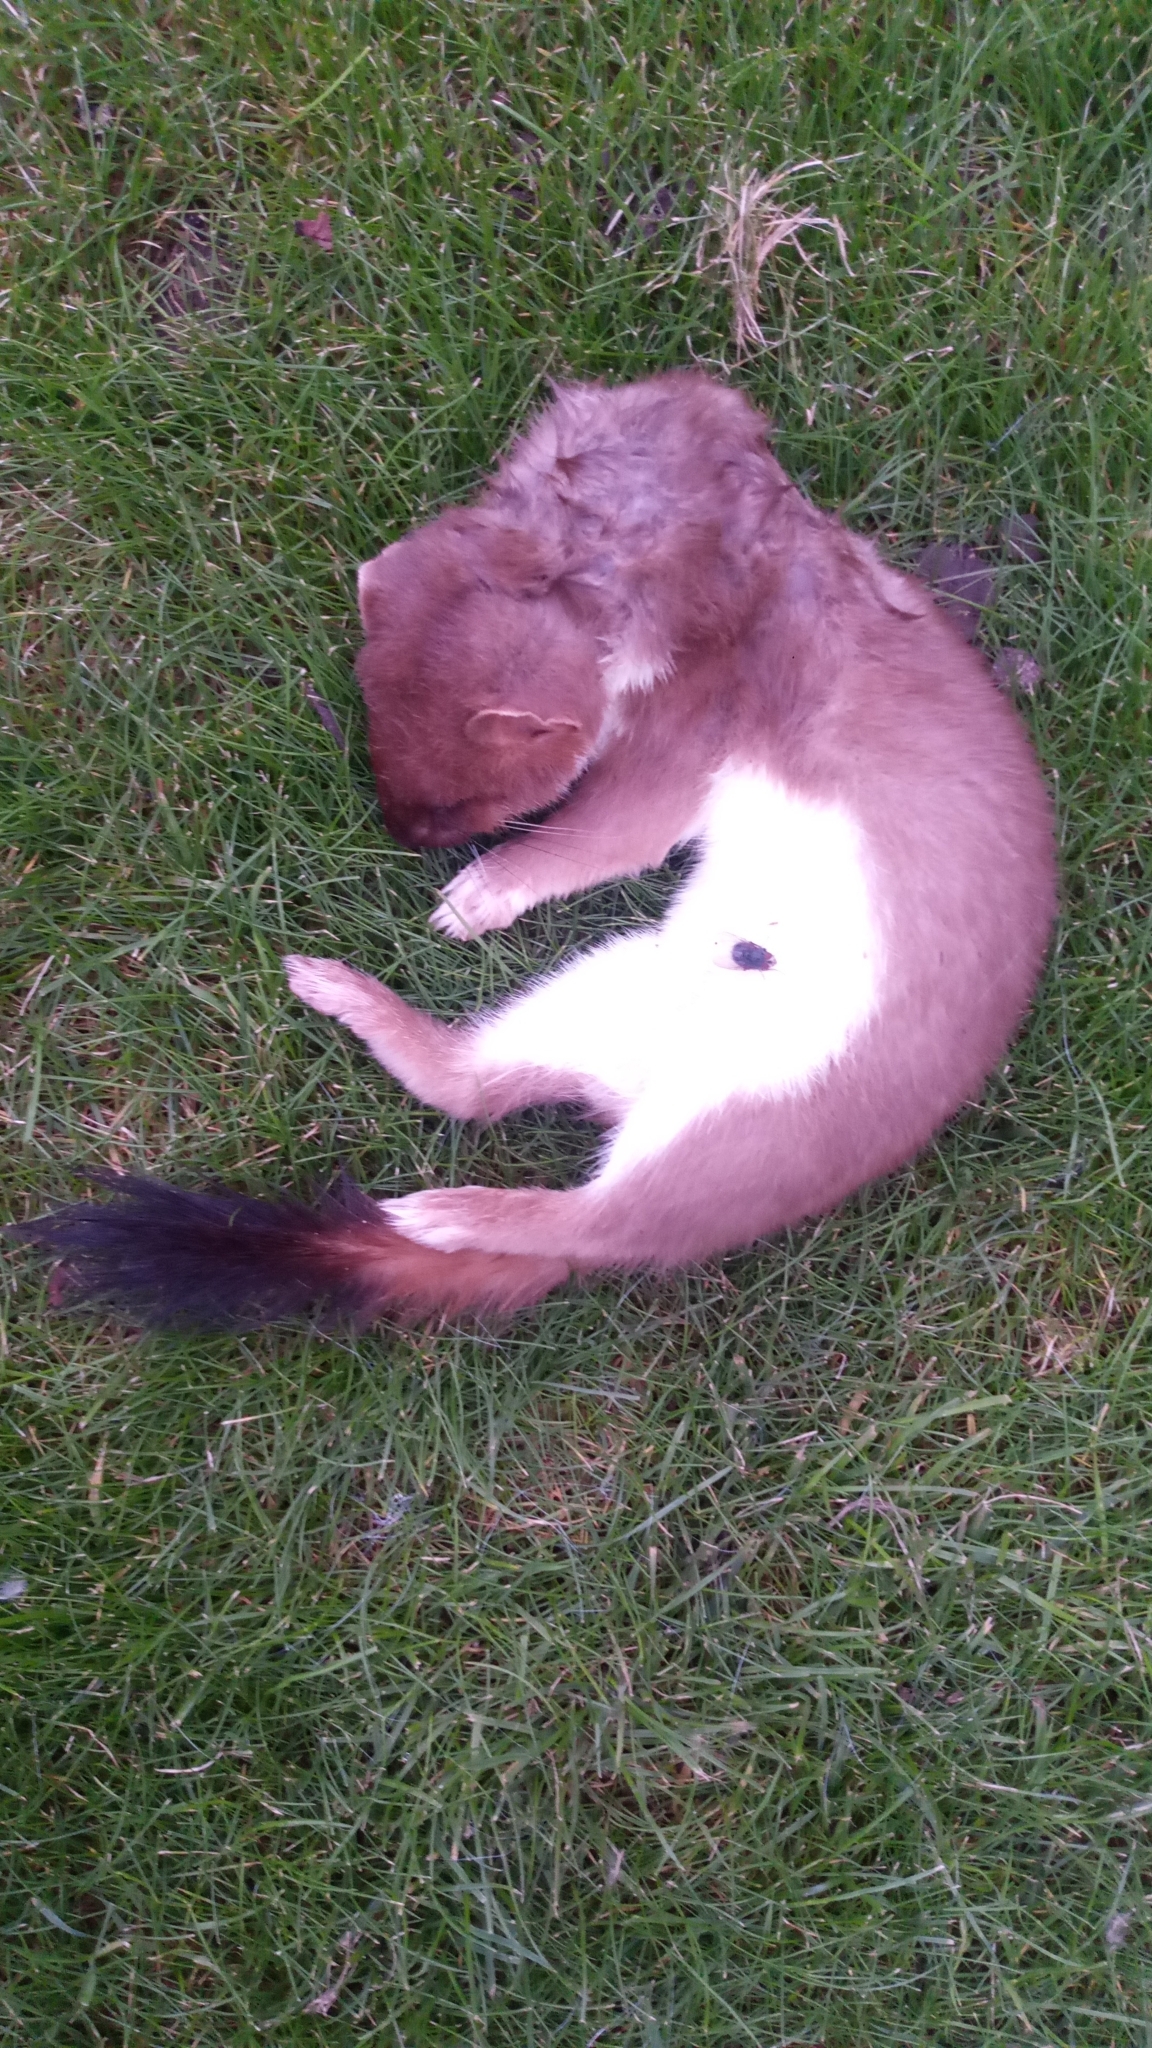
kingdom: Animalia
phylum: Chordata
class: Mammalia
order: Carnivora
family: Mustelidae
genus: Mustela
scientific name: Mustela erminea
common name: Stoat
